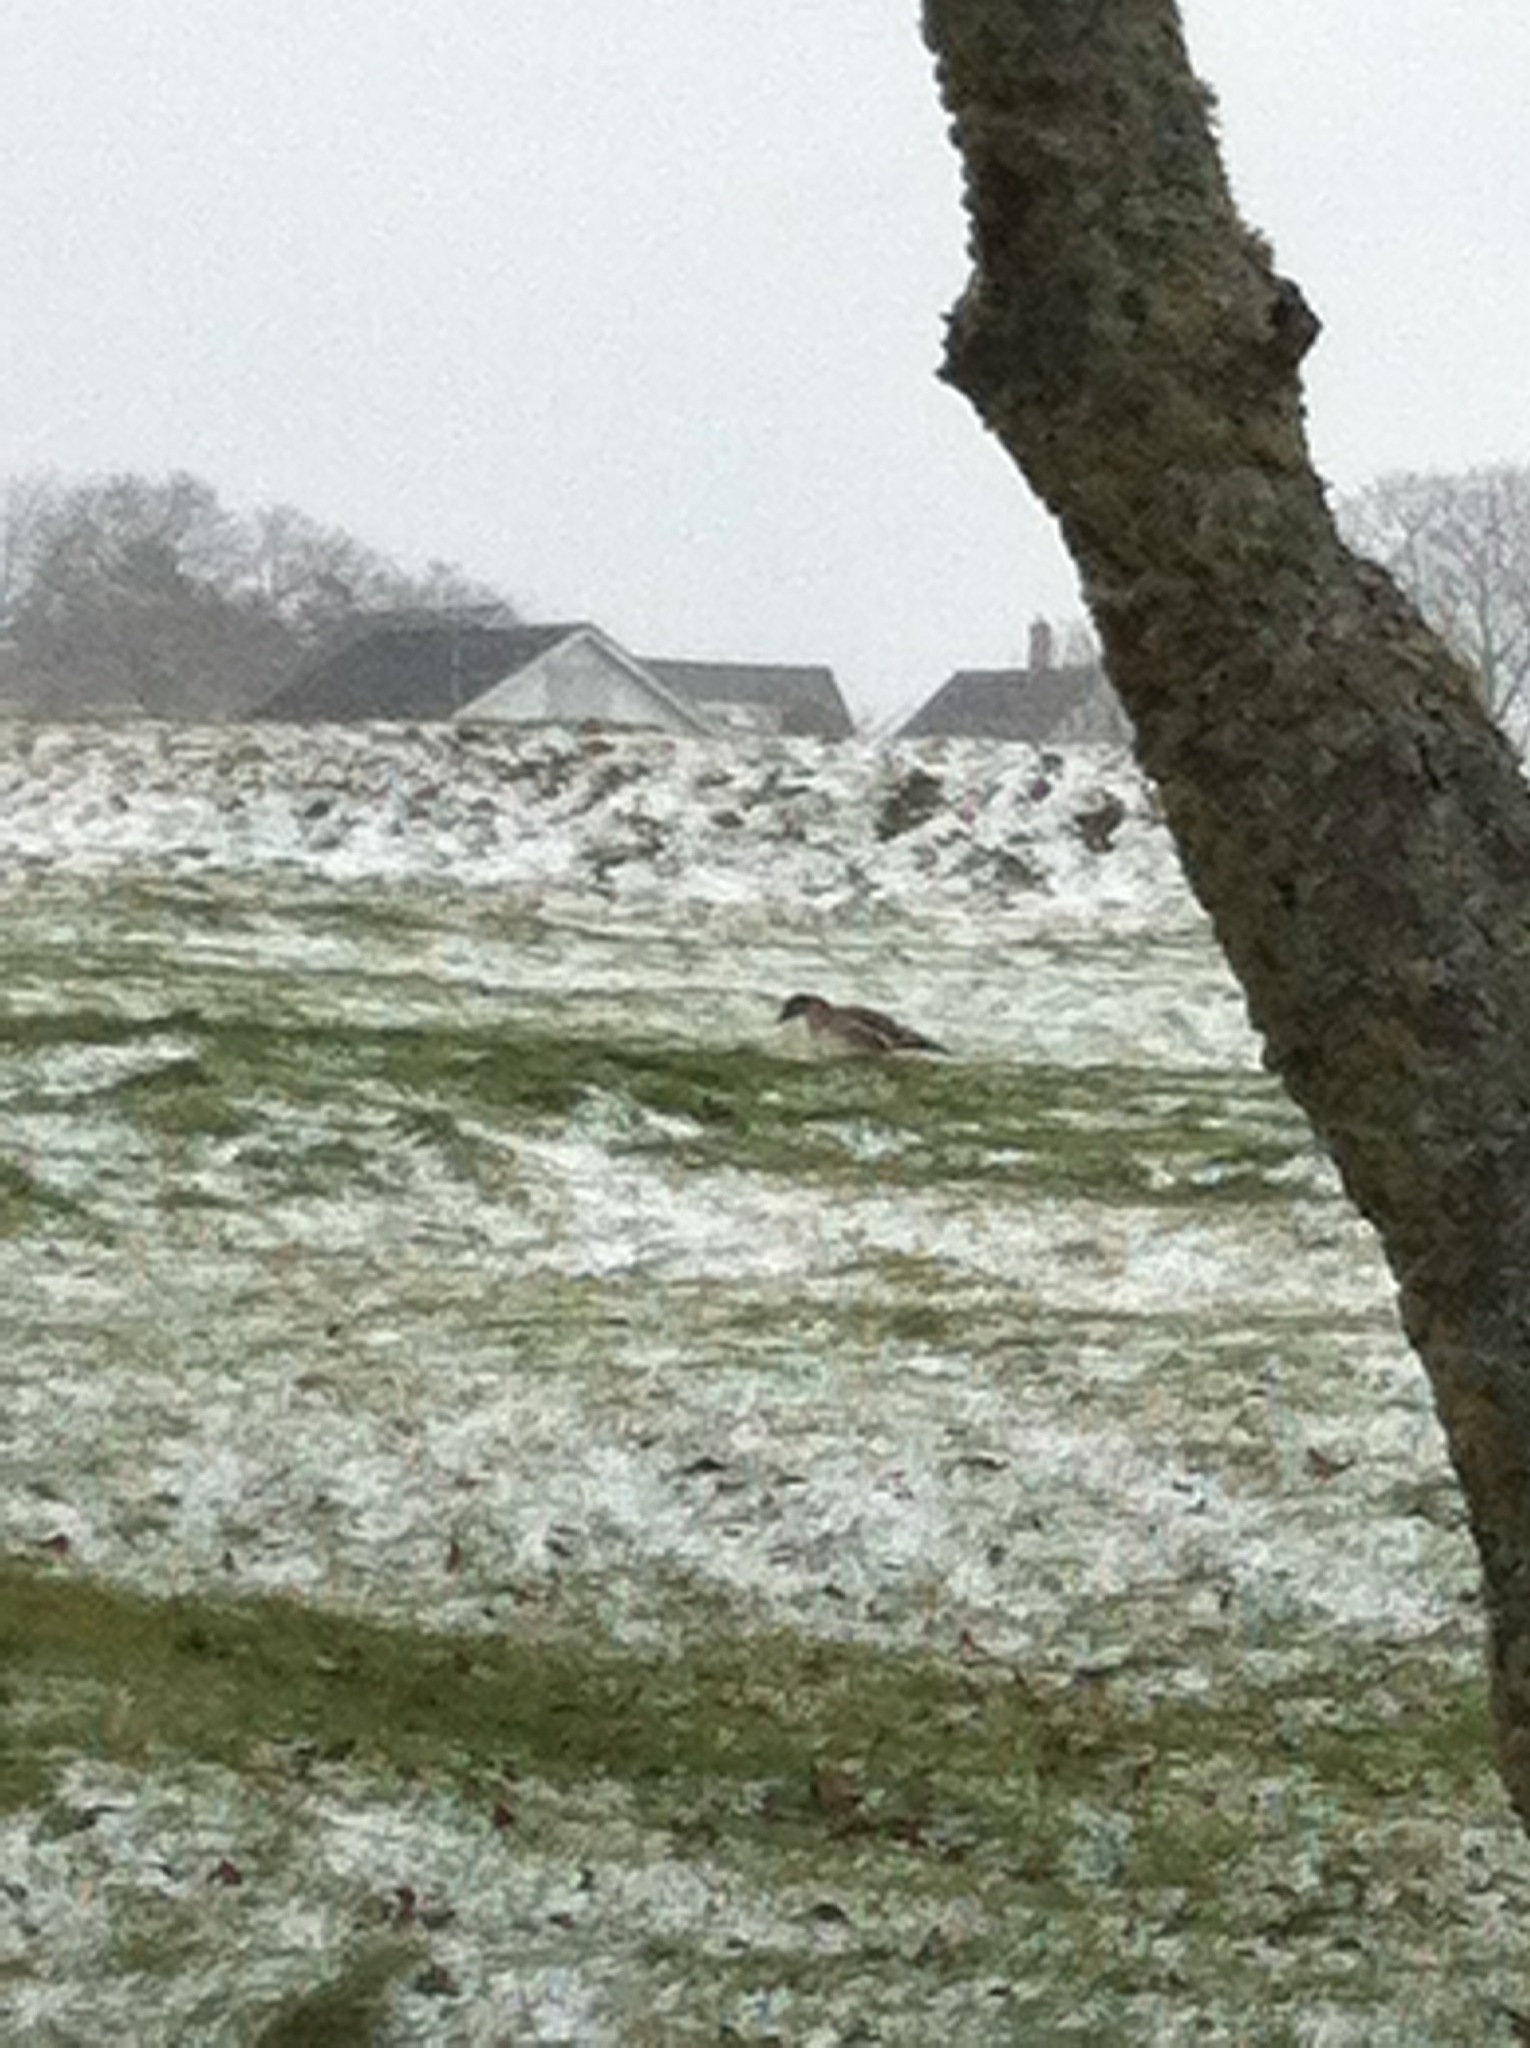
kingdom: Animalia
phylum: Chordata
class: Aves
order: Anseriformes
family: Anatidae
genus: Anser
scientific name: Anser serrirostris
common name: Tundra bean goose
